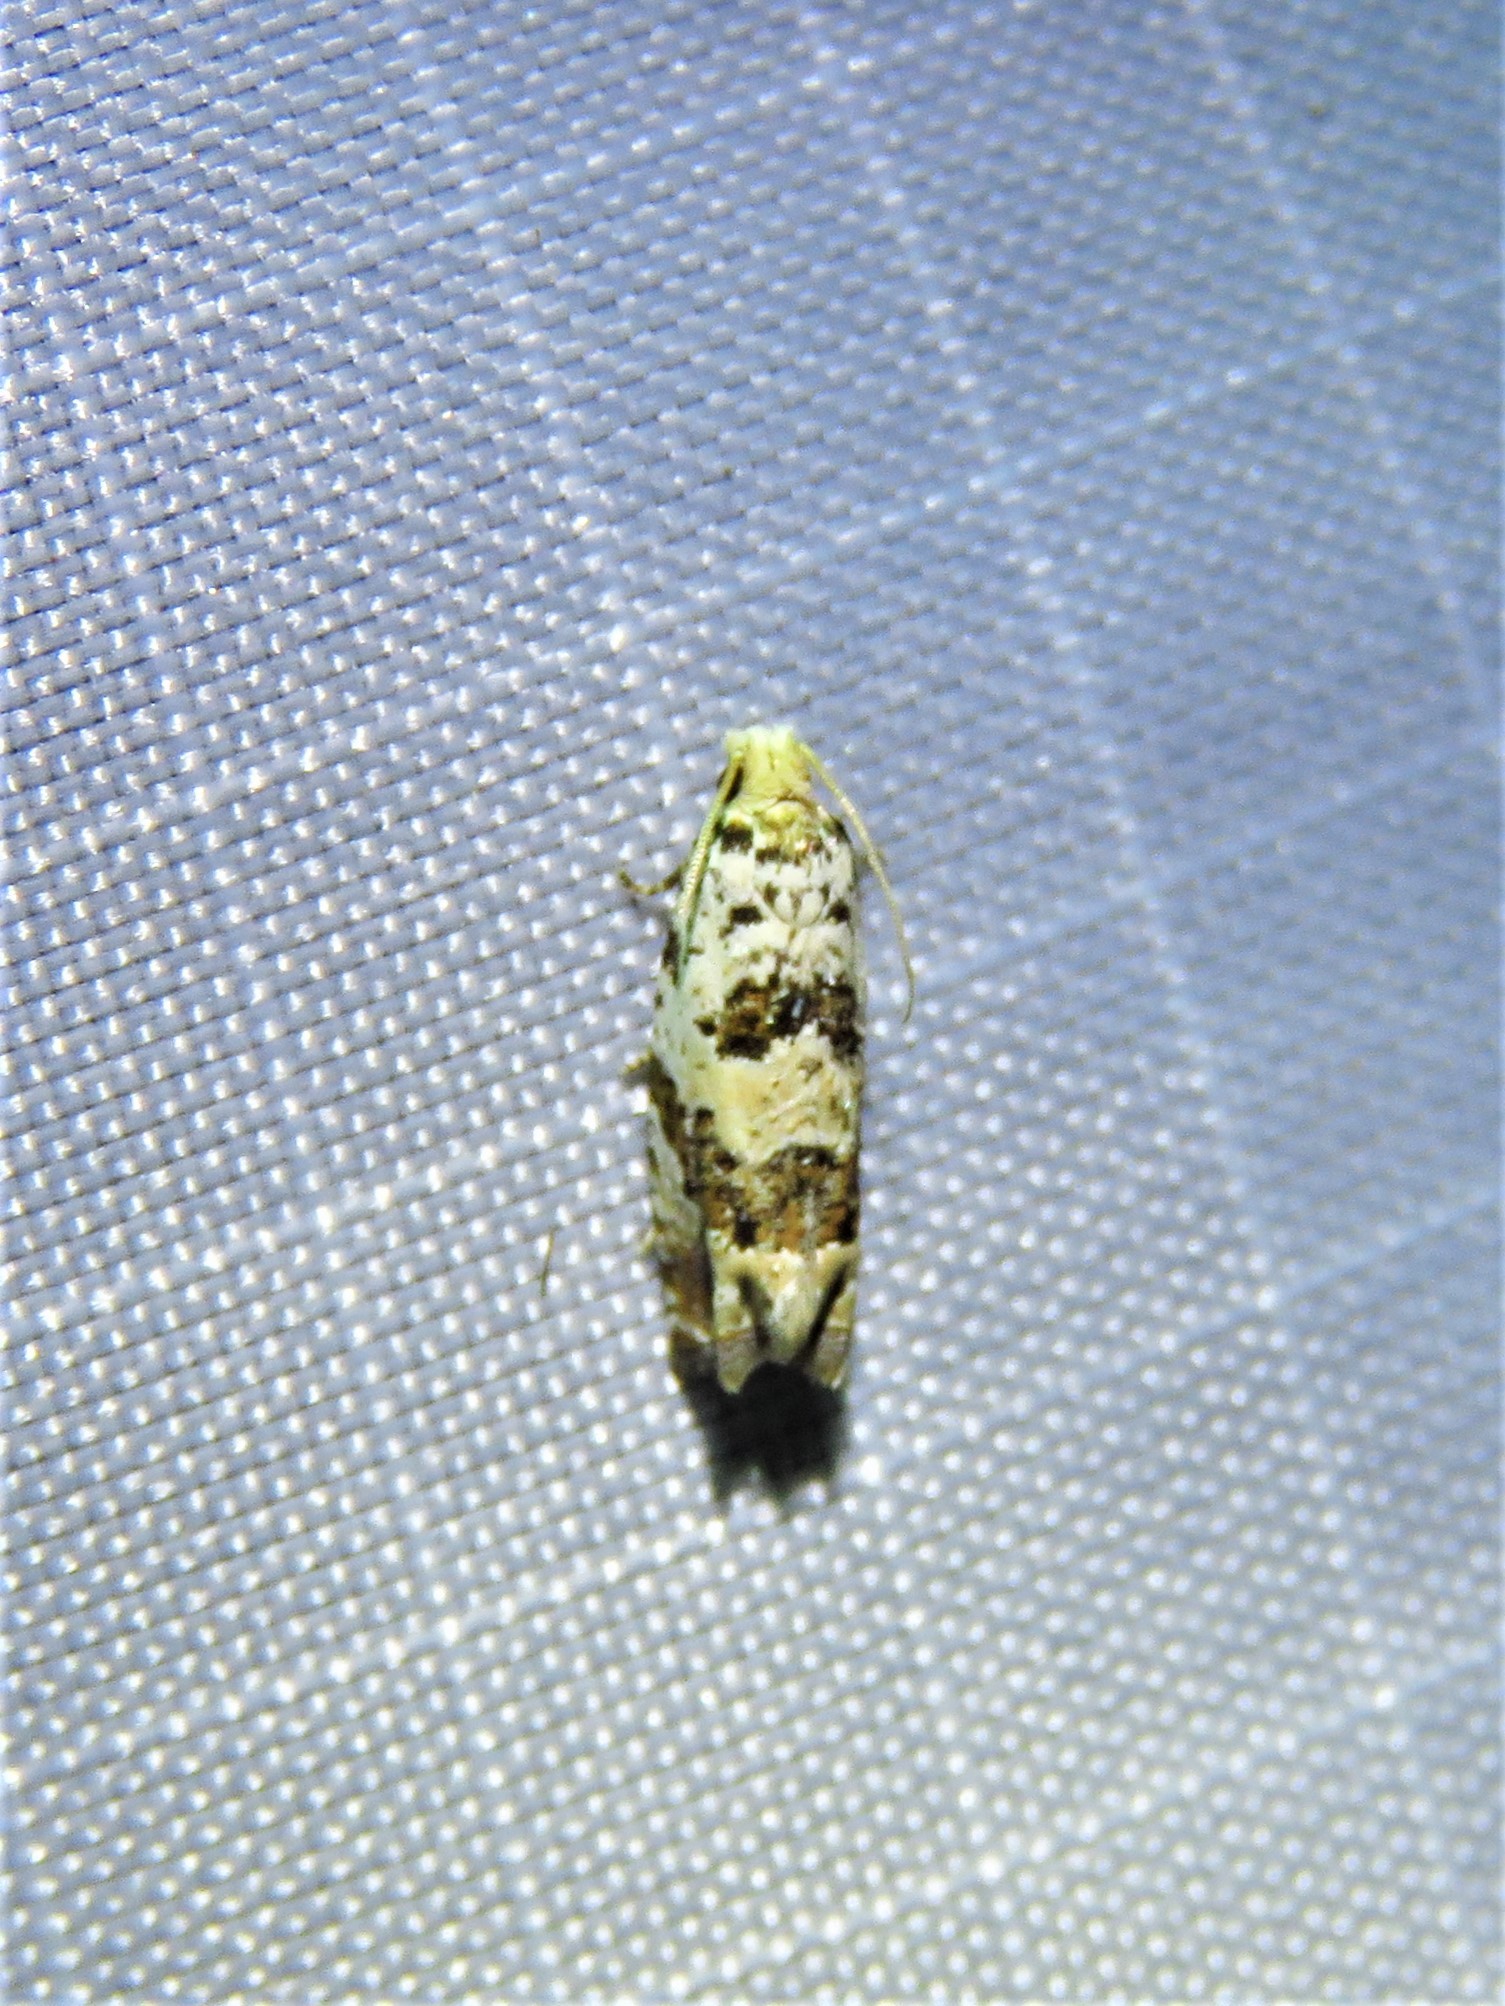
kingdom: Animalia
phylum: Arthropoda
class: Insecta
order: Lepidoptera
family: Tortricidae
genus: Pelochrista
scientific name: Pelochrista matutina
